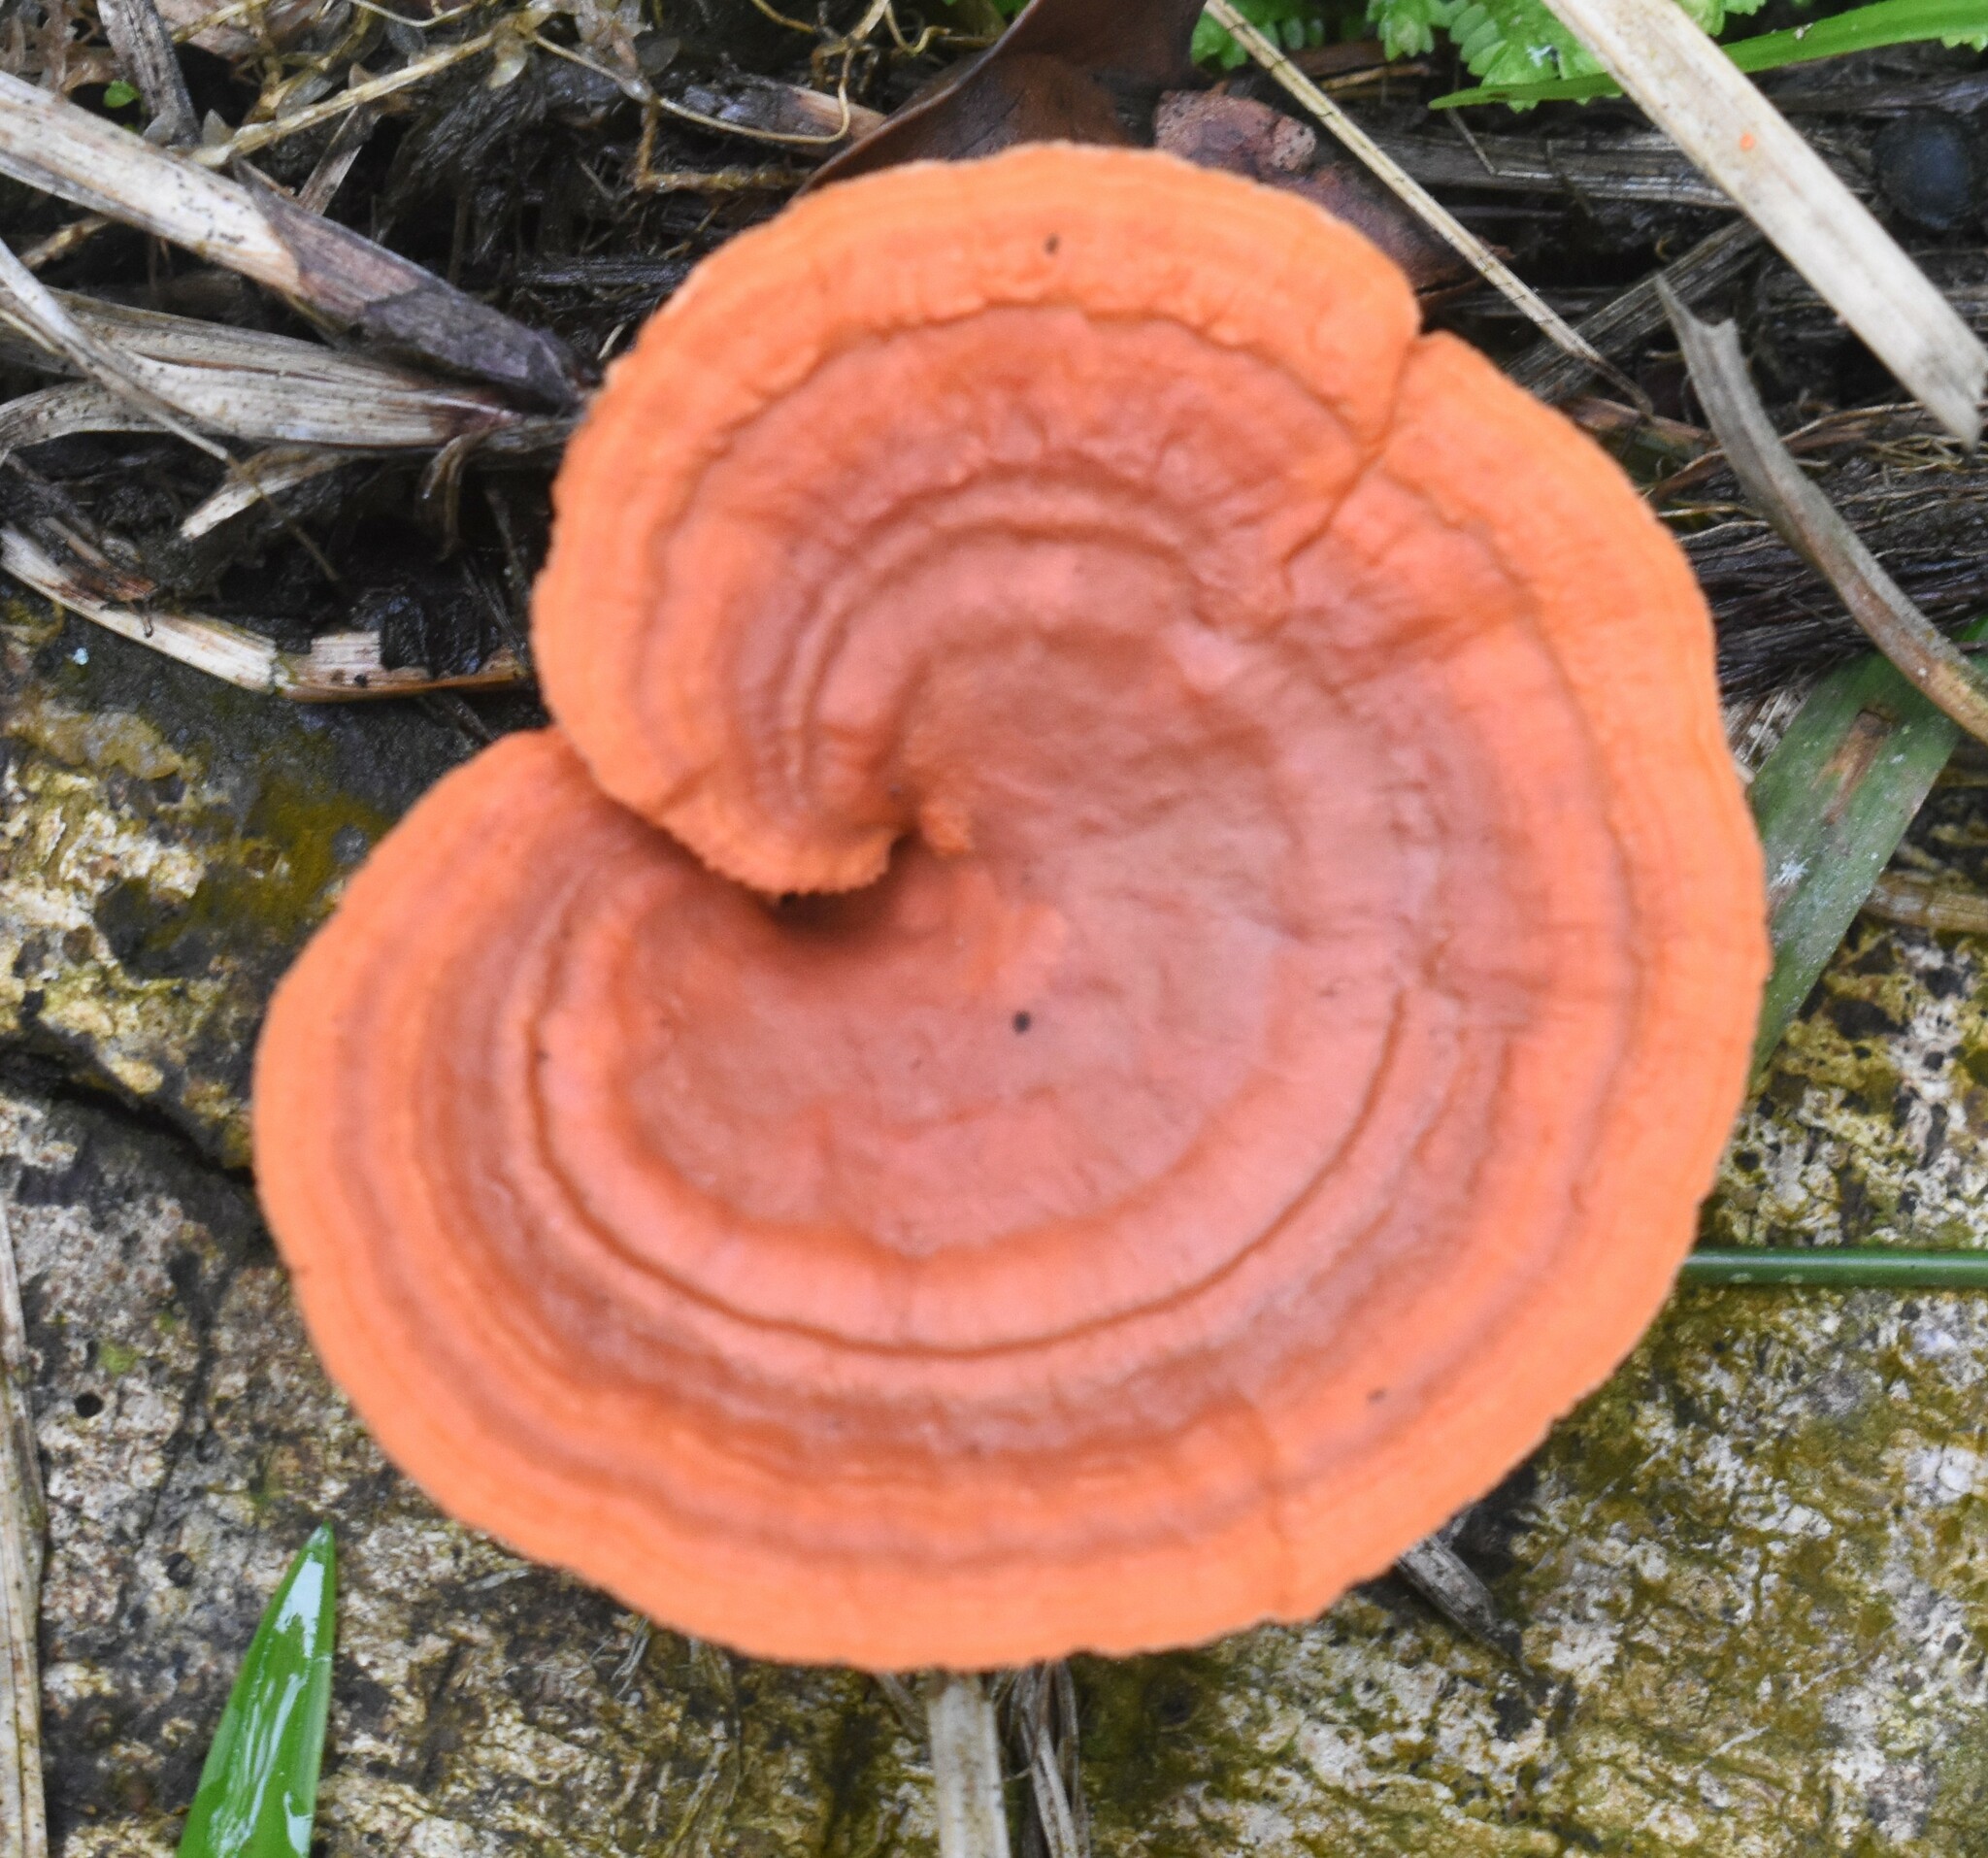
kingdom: Fungi
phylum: Basidiomycota
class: Agaricomycetes
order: Polyporales
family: Polyporaceae
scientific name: Polyporaceae
